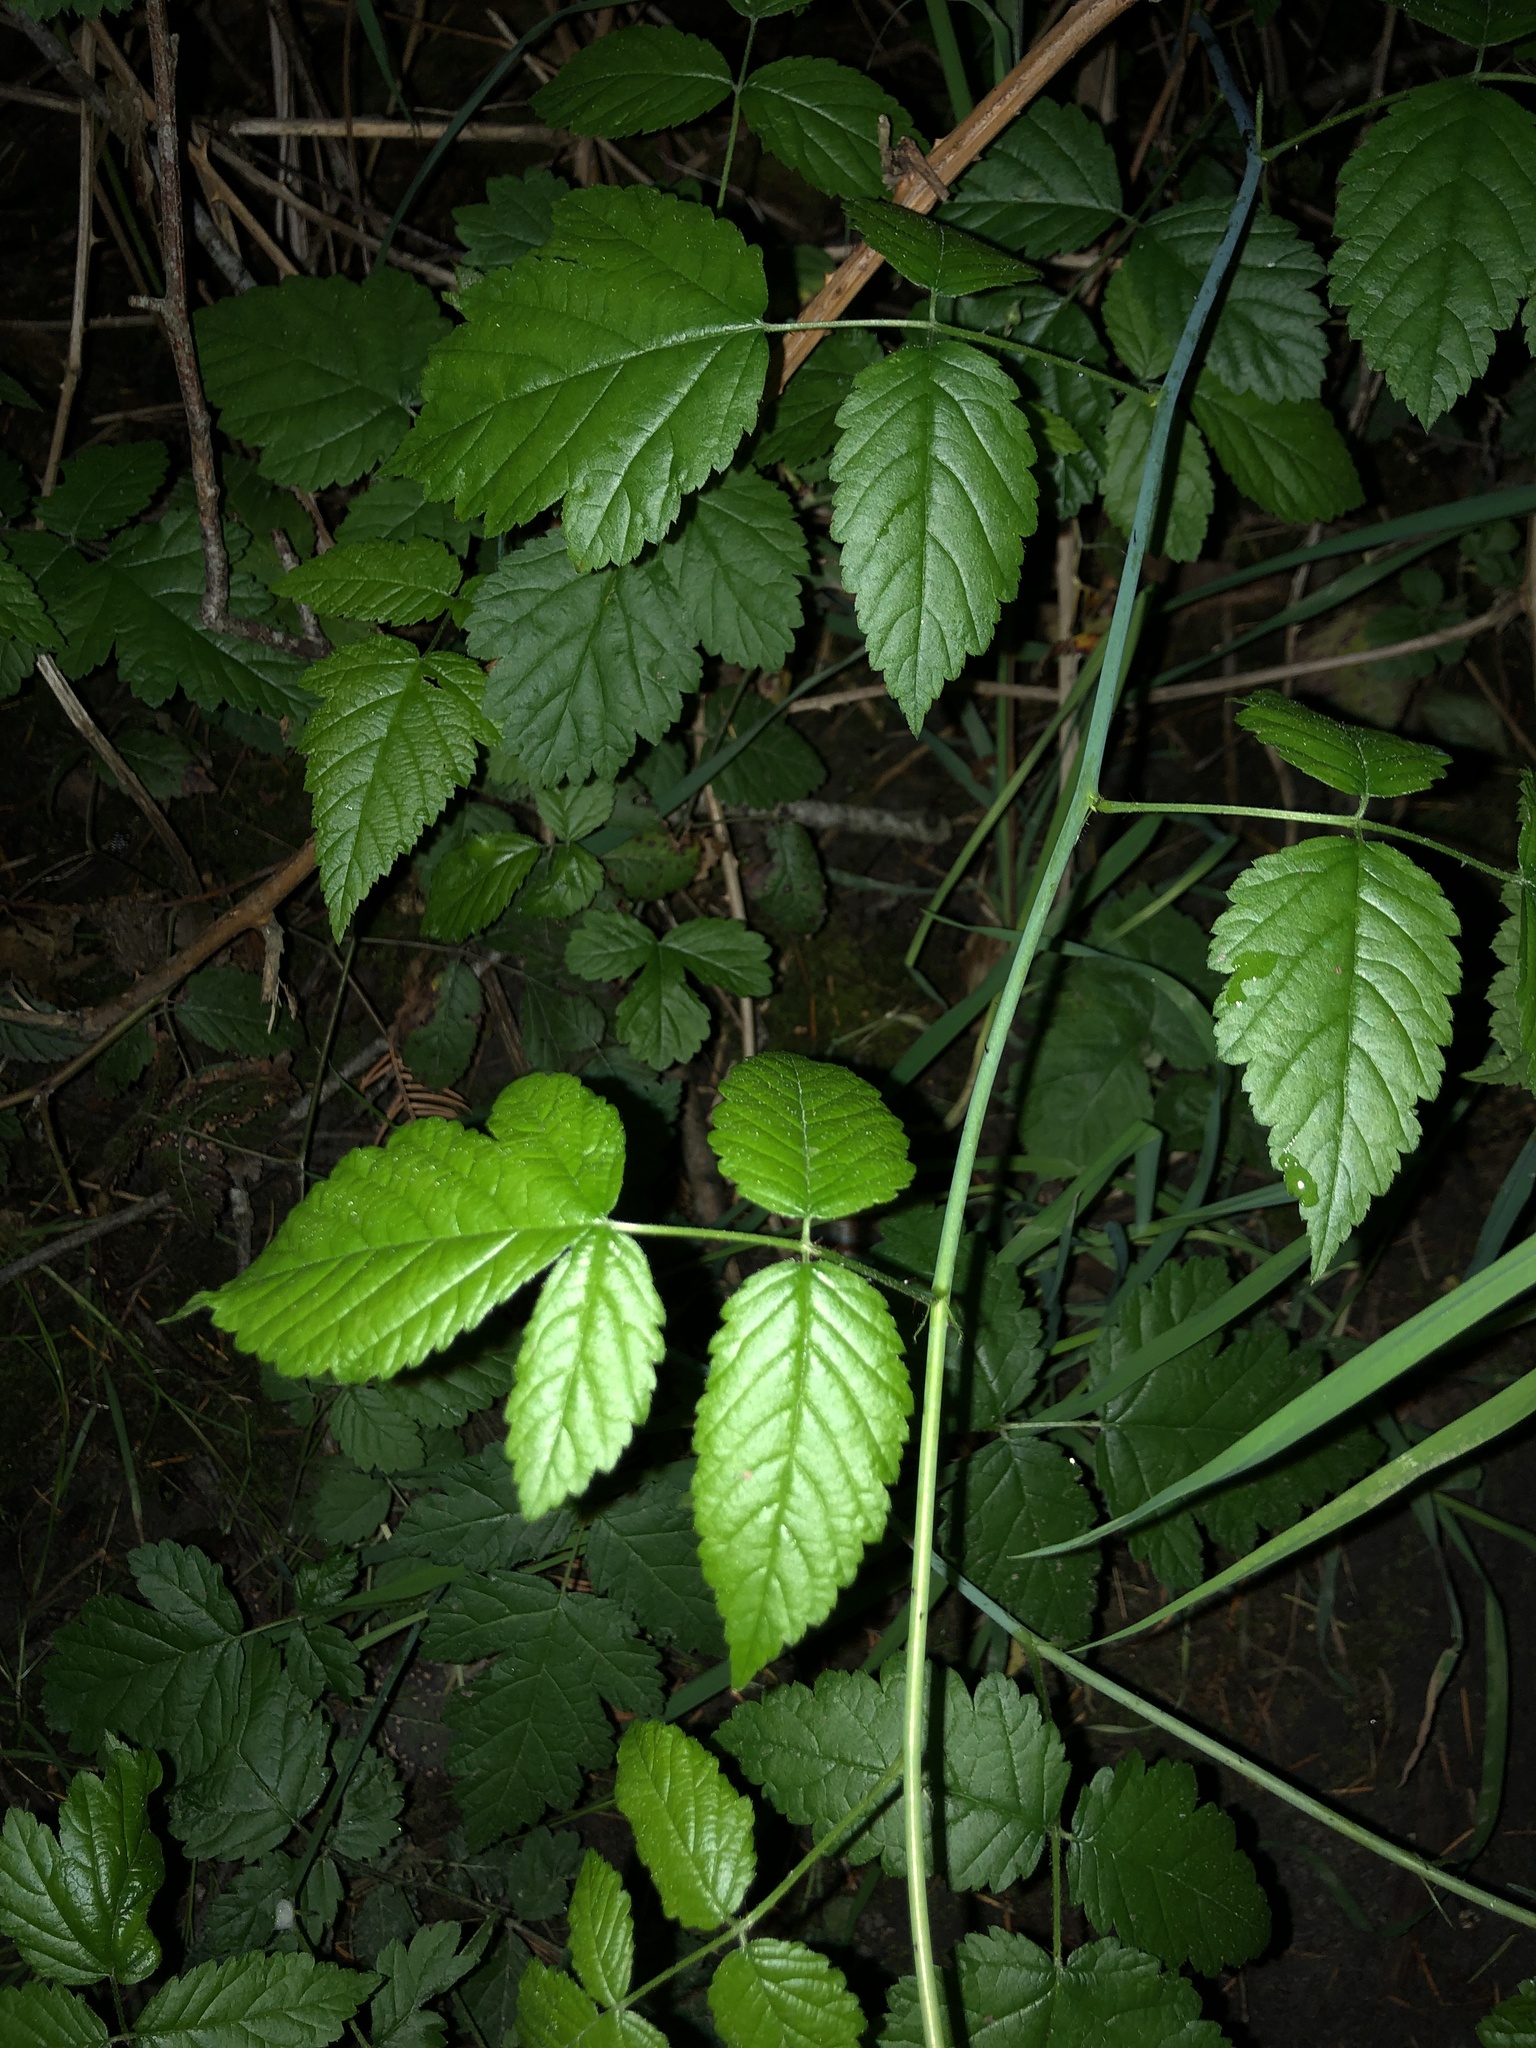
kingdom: Plantae
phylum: Tracheophyta
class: Magnoliopsida
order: Rosales
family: Rosaceae
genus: Rubus
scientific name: Rubus ursinus
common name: Pacific blackberry
